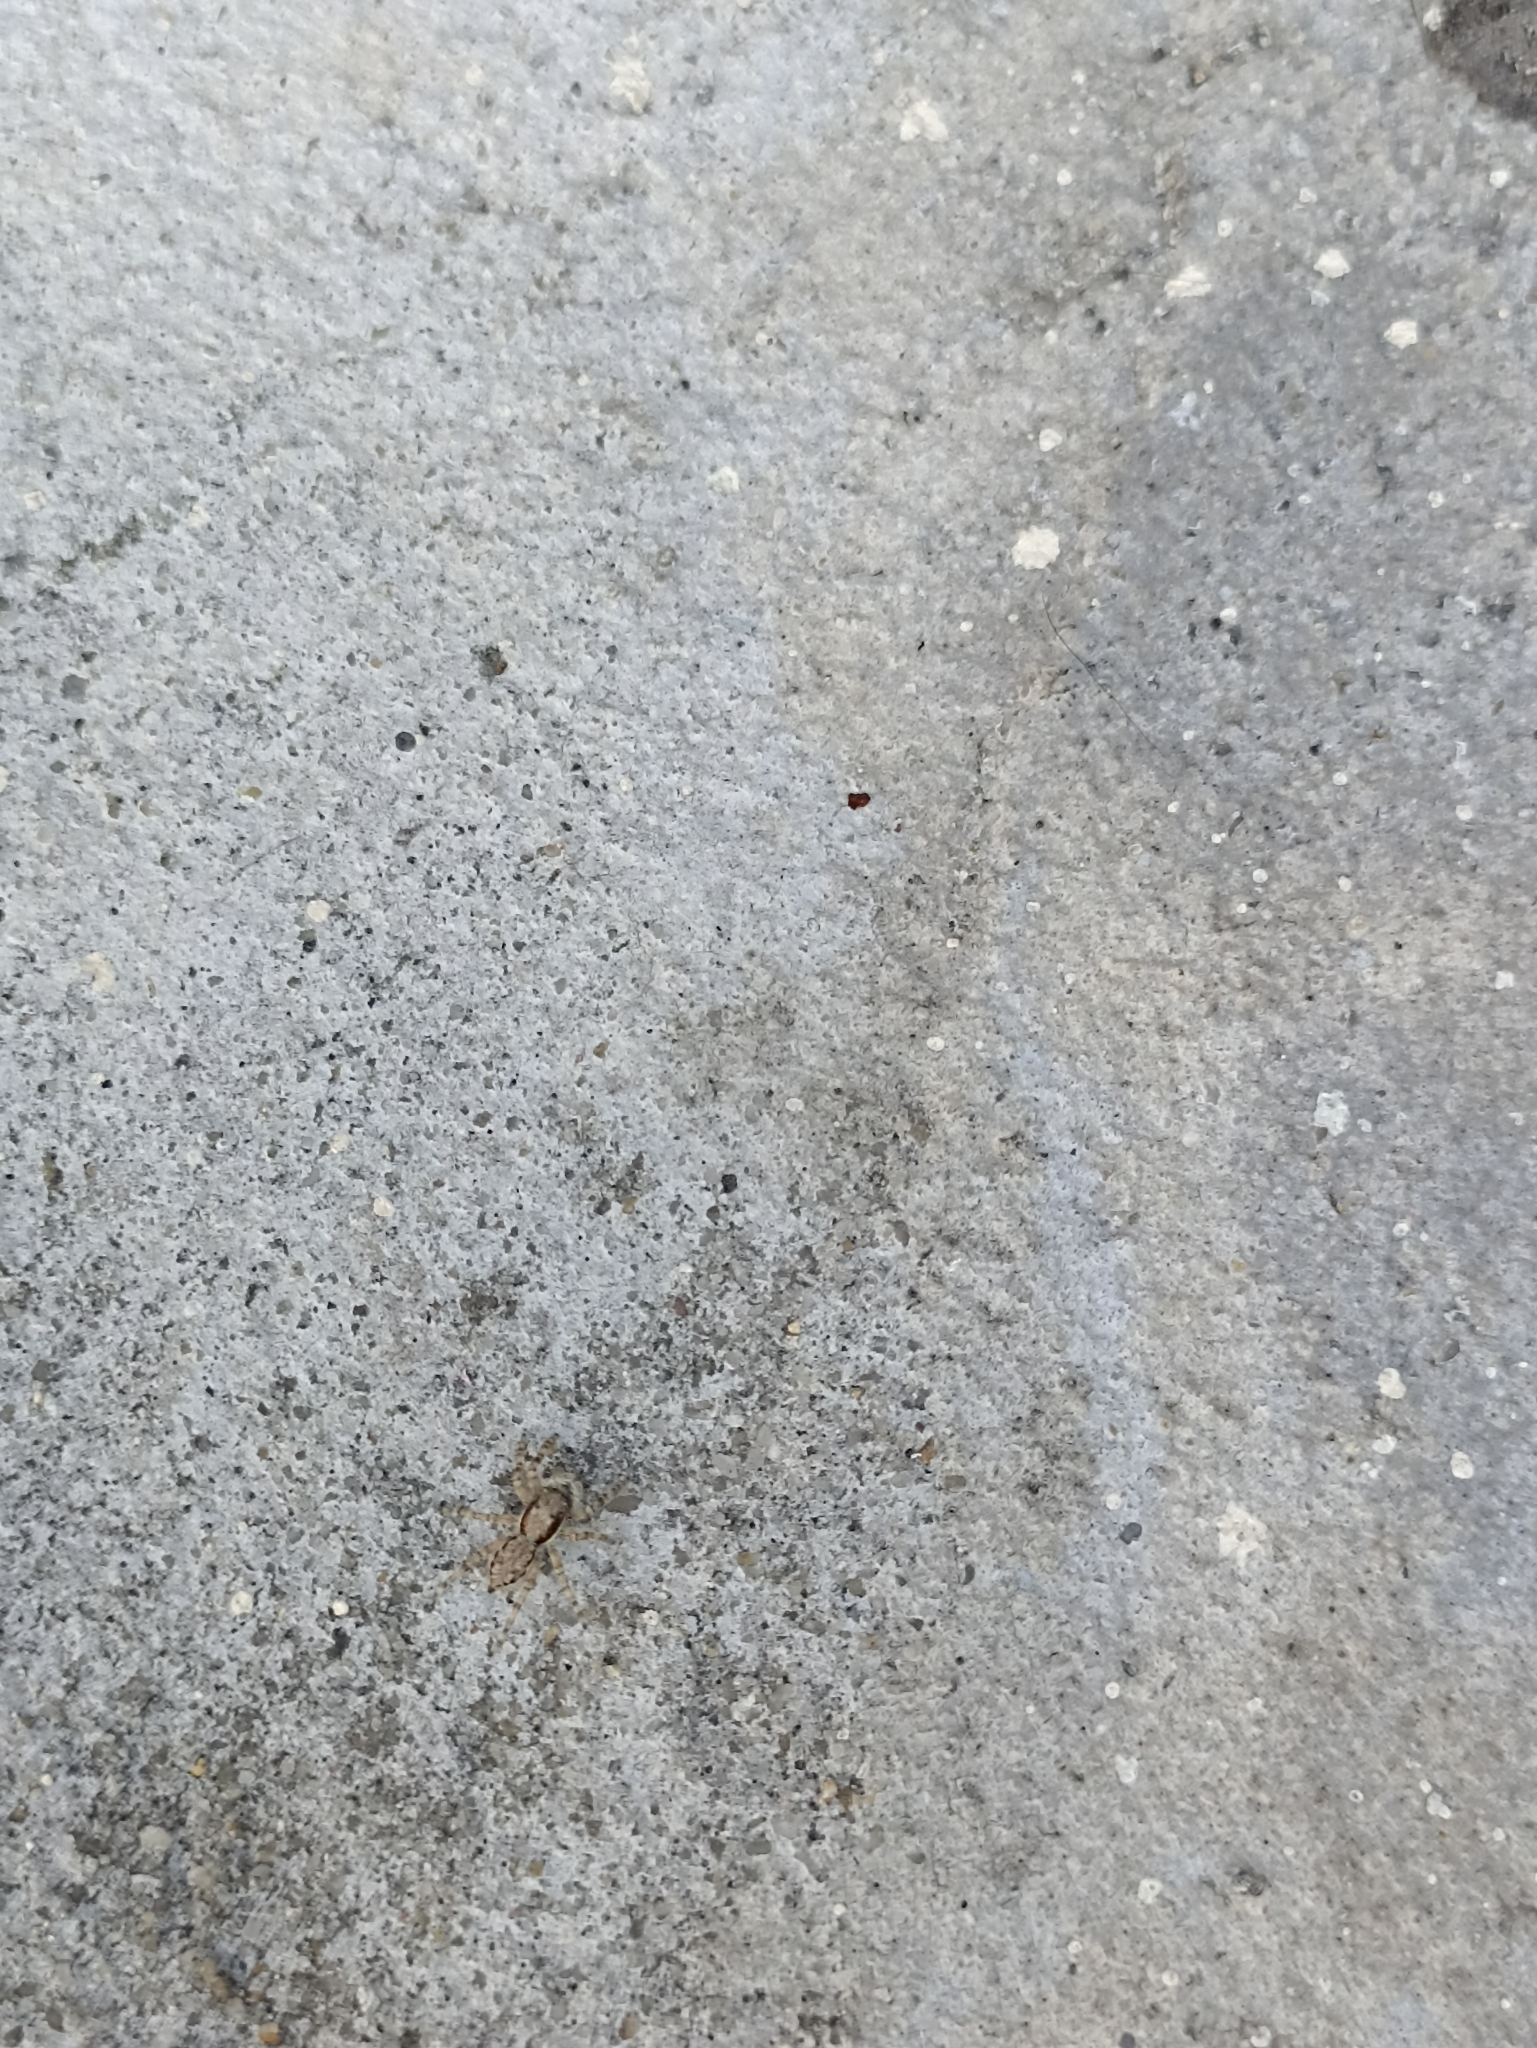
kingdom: Animalia
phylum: Arthropoda
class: Arachnida
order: Araneae
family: Salticidae
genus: Menemerus
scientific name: Menemerus bivittatus
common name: Gray wall jumper
